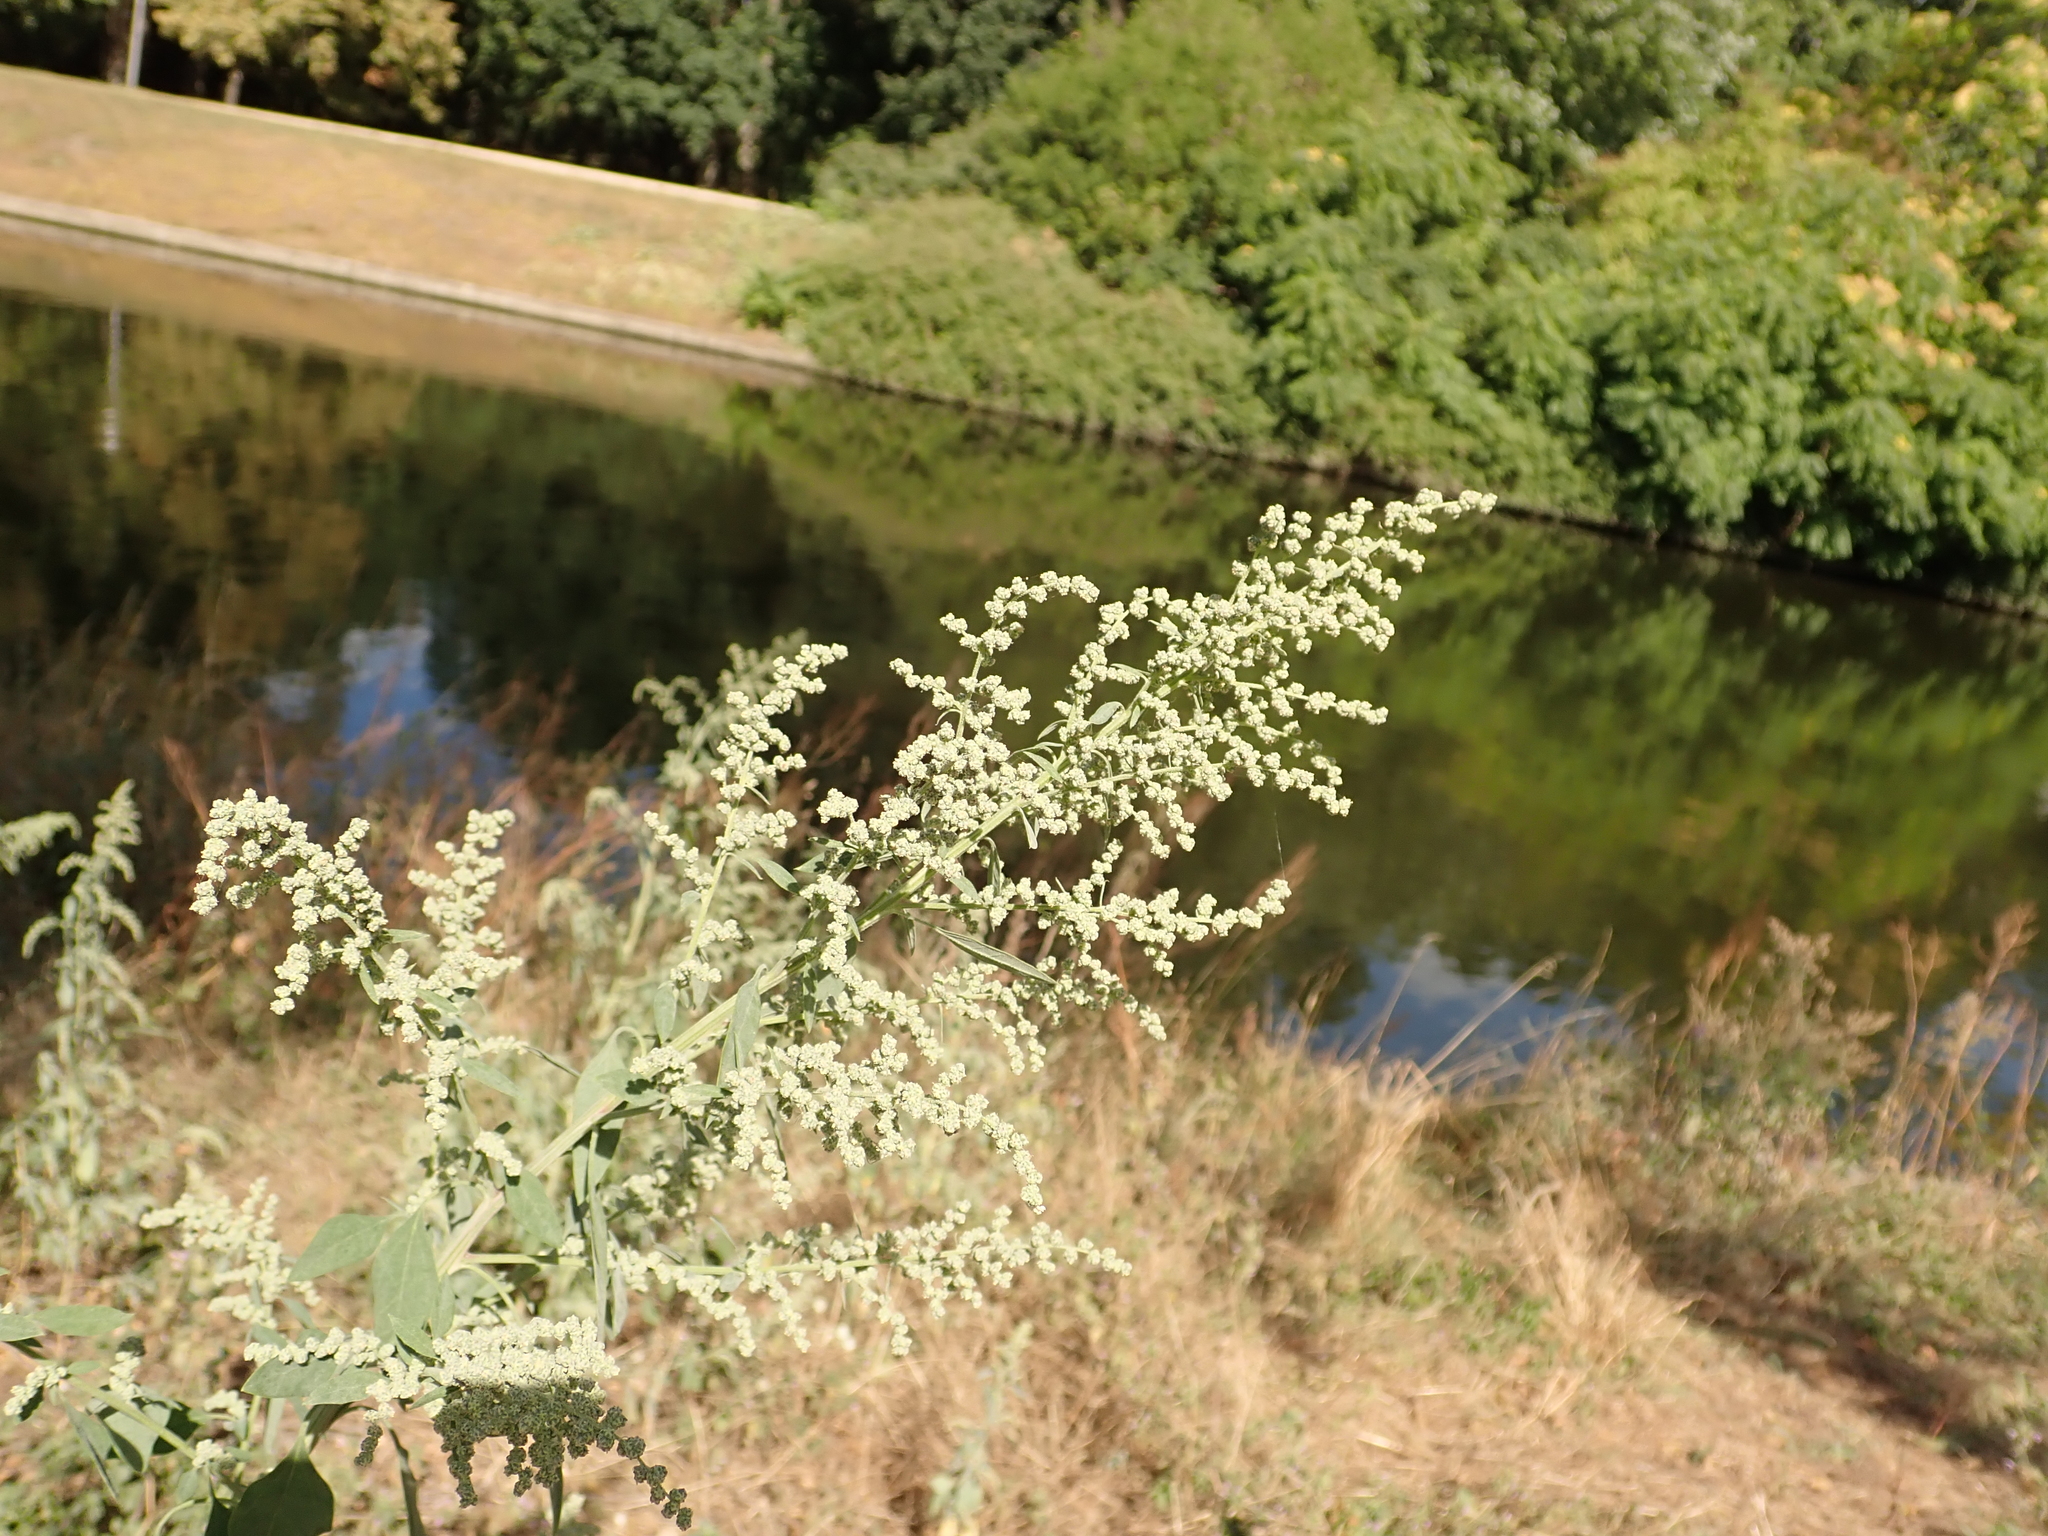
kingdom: Plantae
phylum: Tracheophyta
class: Magnoliopsida
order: Caryophyllales
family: Amaranthaceae
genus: Chenopodium
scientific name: Chenopodium album
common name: Fat-hen
